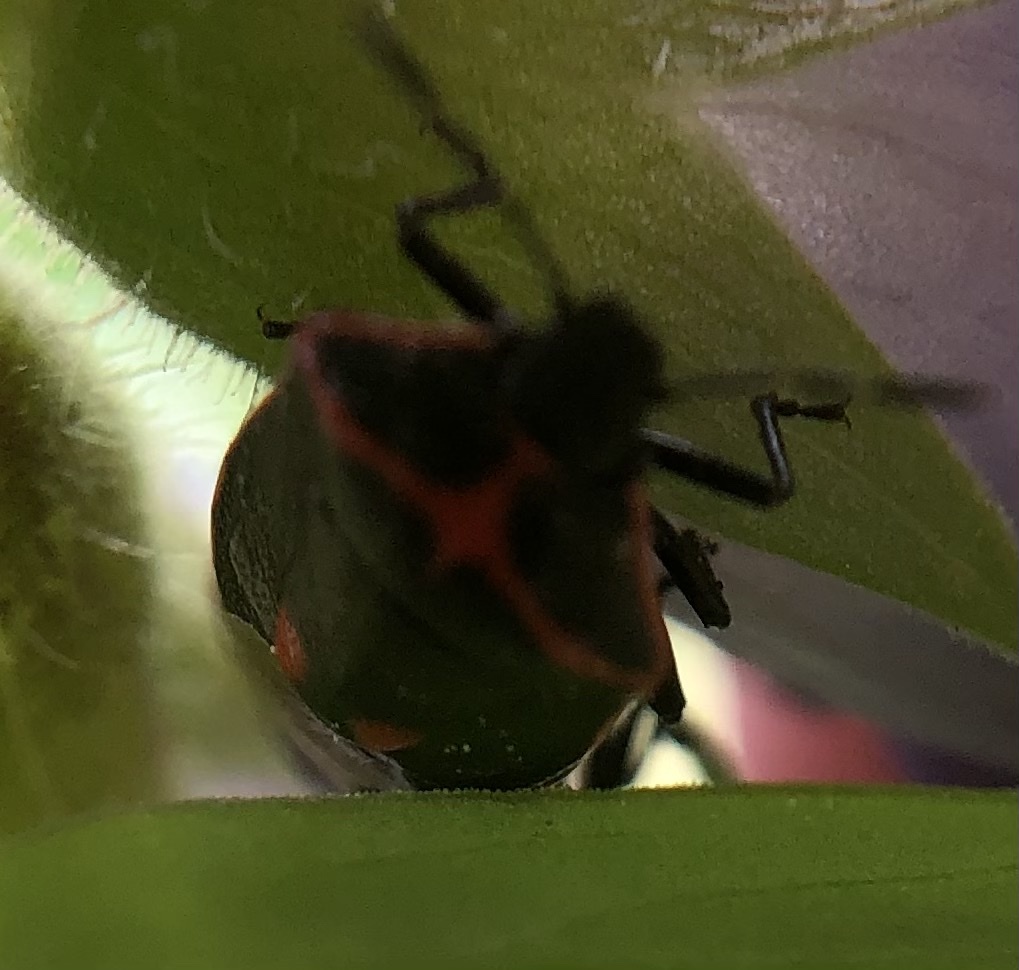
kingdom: Animalia
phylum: Arthropoda
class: Insecta
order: Hemiptera
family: Pentatomidae
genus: Cosmopepla
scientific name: Cosmopepla lintneriana
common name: Twice-stabbed stink bug
